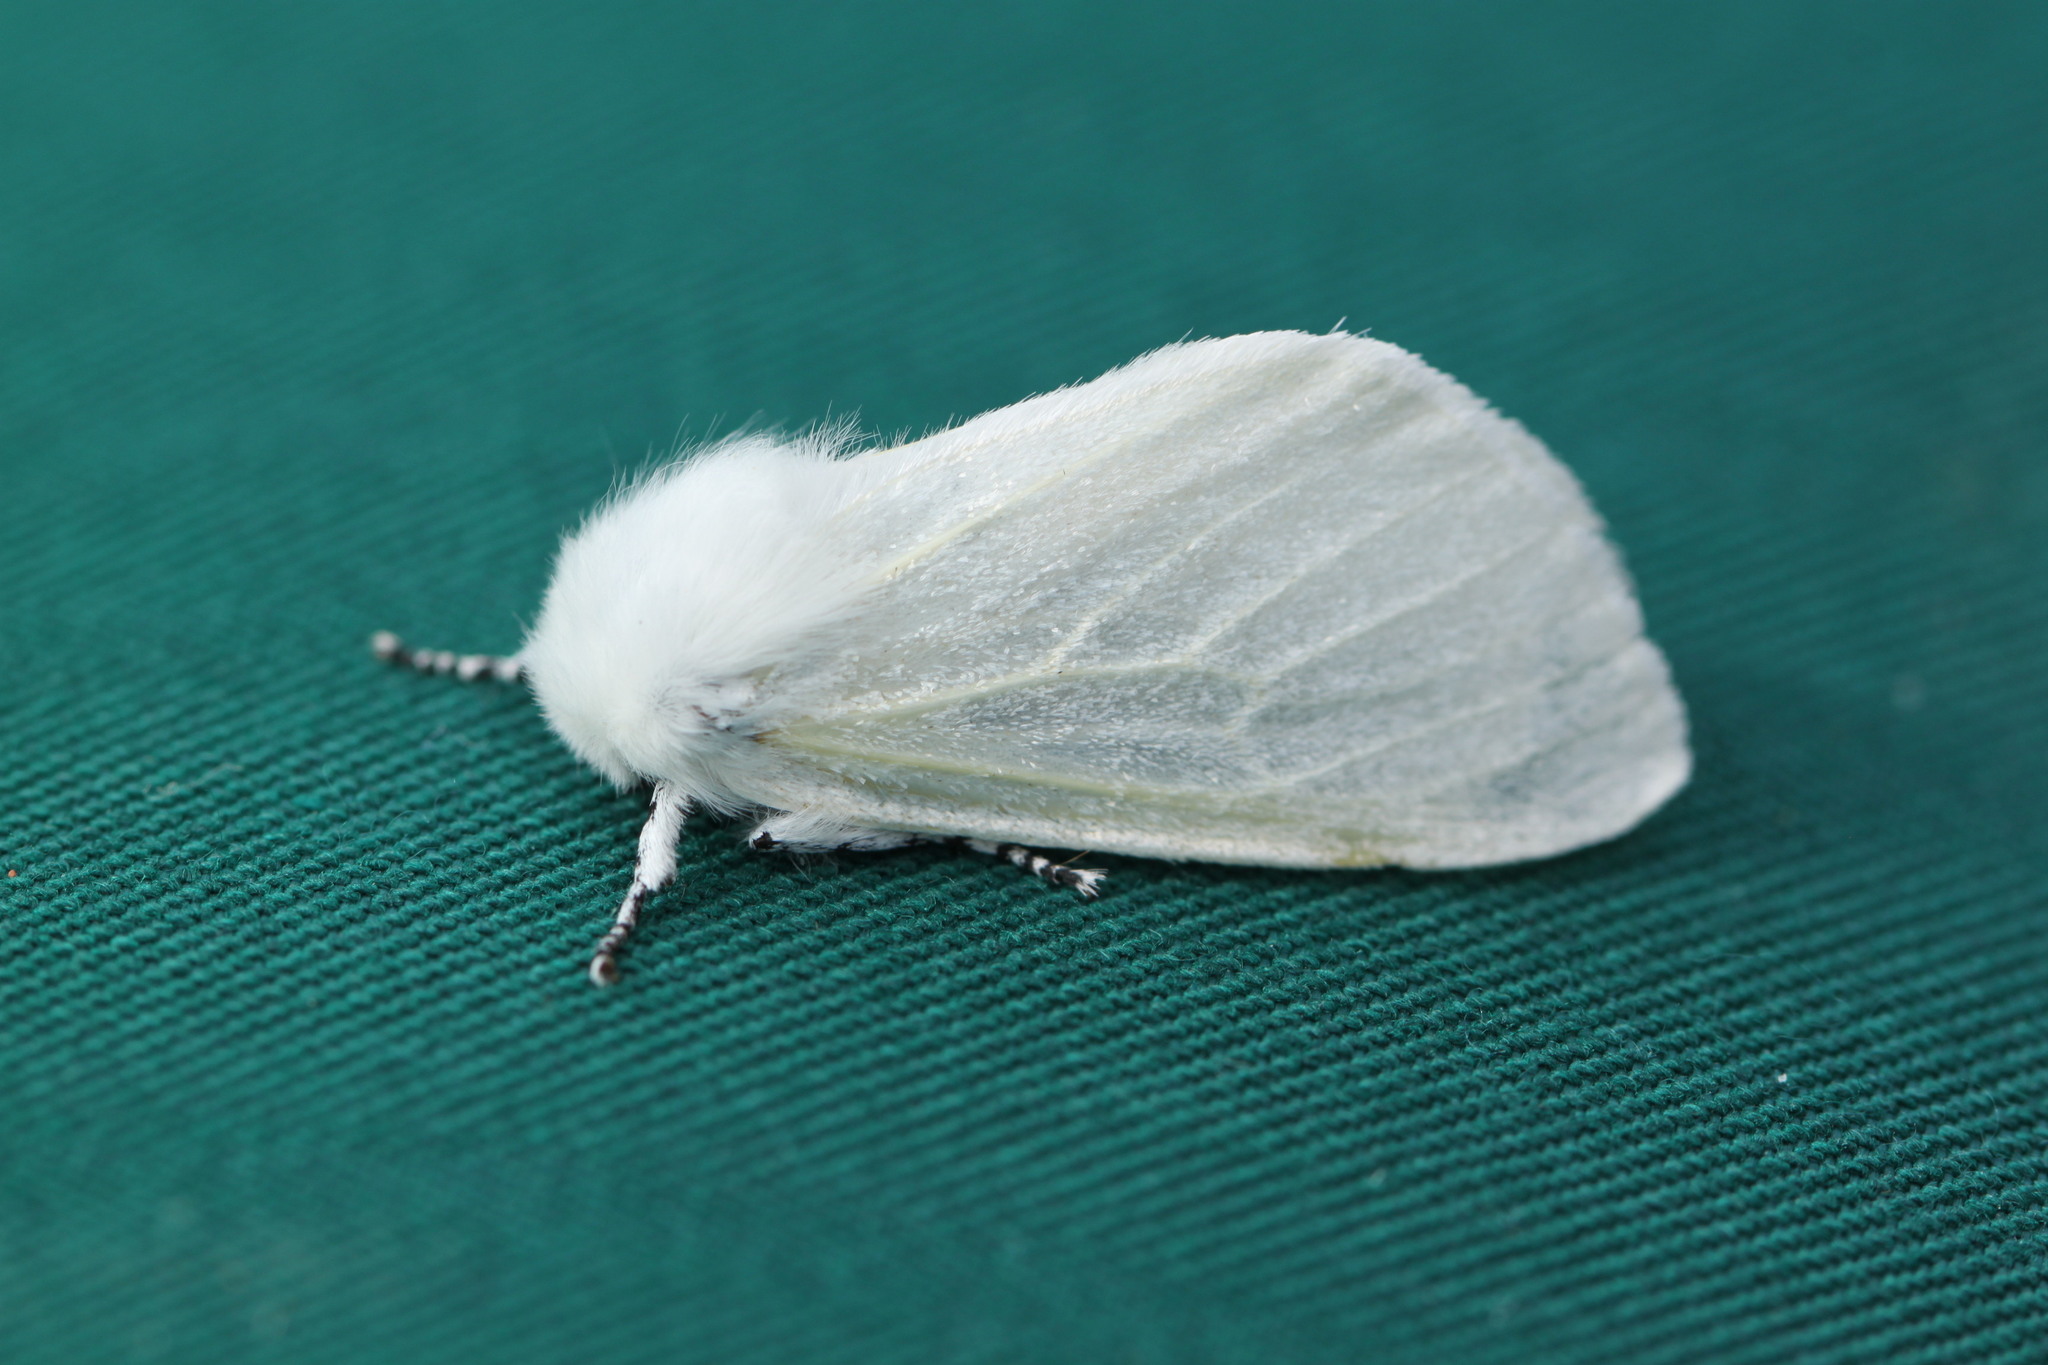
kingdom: Animalia
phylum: Arthropoda
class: Insecta
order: Lepidoptera
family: Erebidae
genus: Leucoma
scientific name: Leucoma salicis
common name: White satin moth
